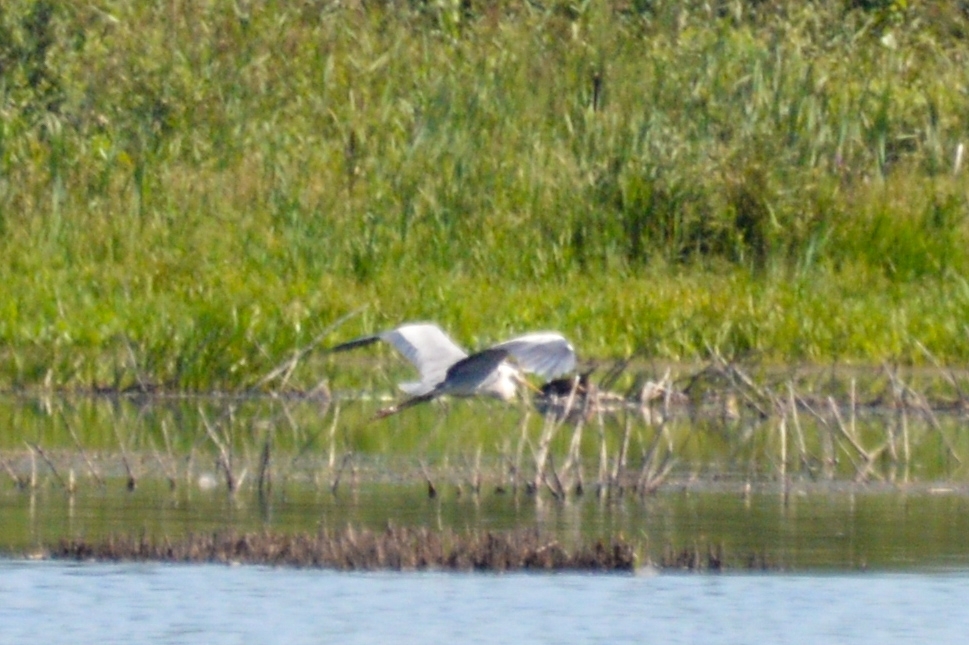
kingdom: Animalia
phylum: Chordata
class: Aves
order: Pelecaniformes
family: Ardeidae
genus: Ardea
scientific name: Ardea cinerea
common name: Grey heron
